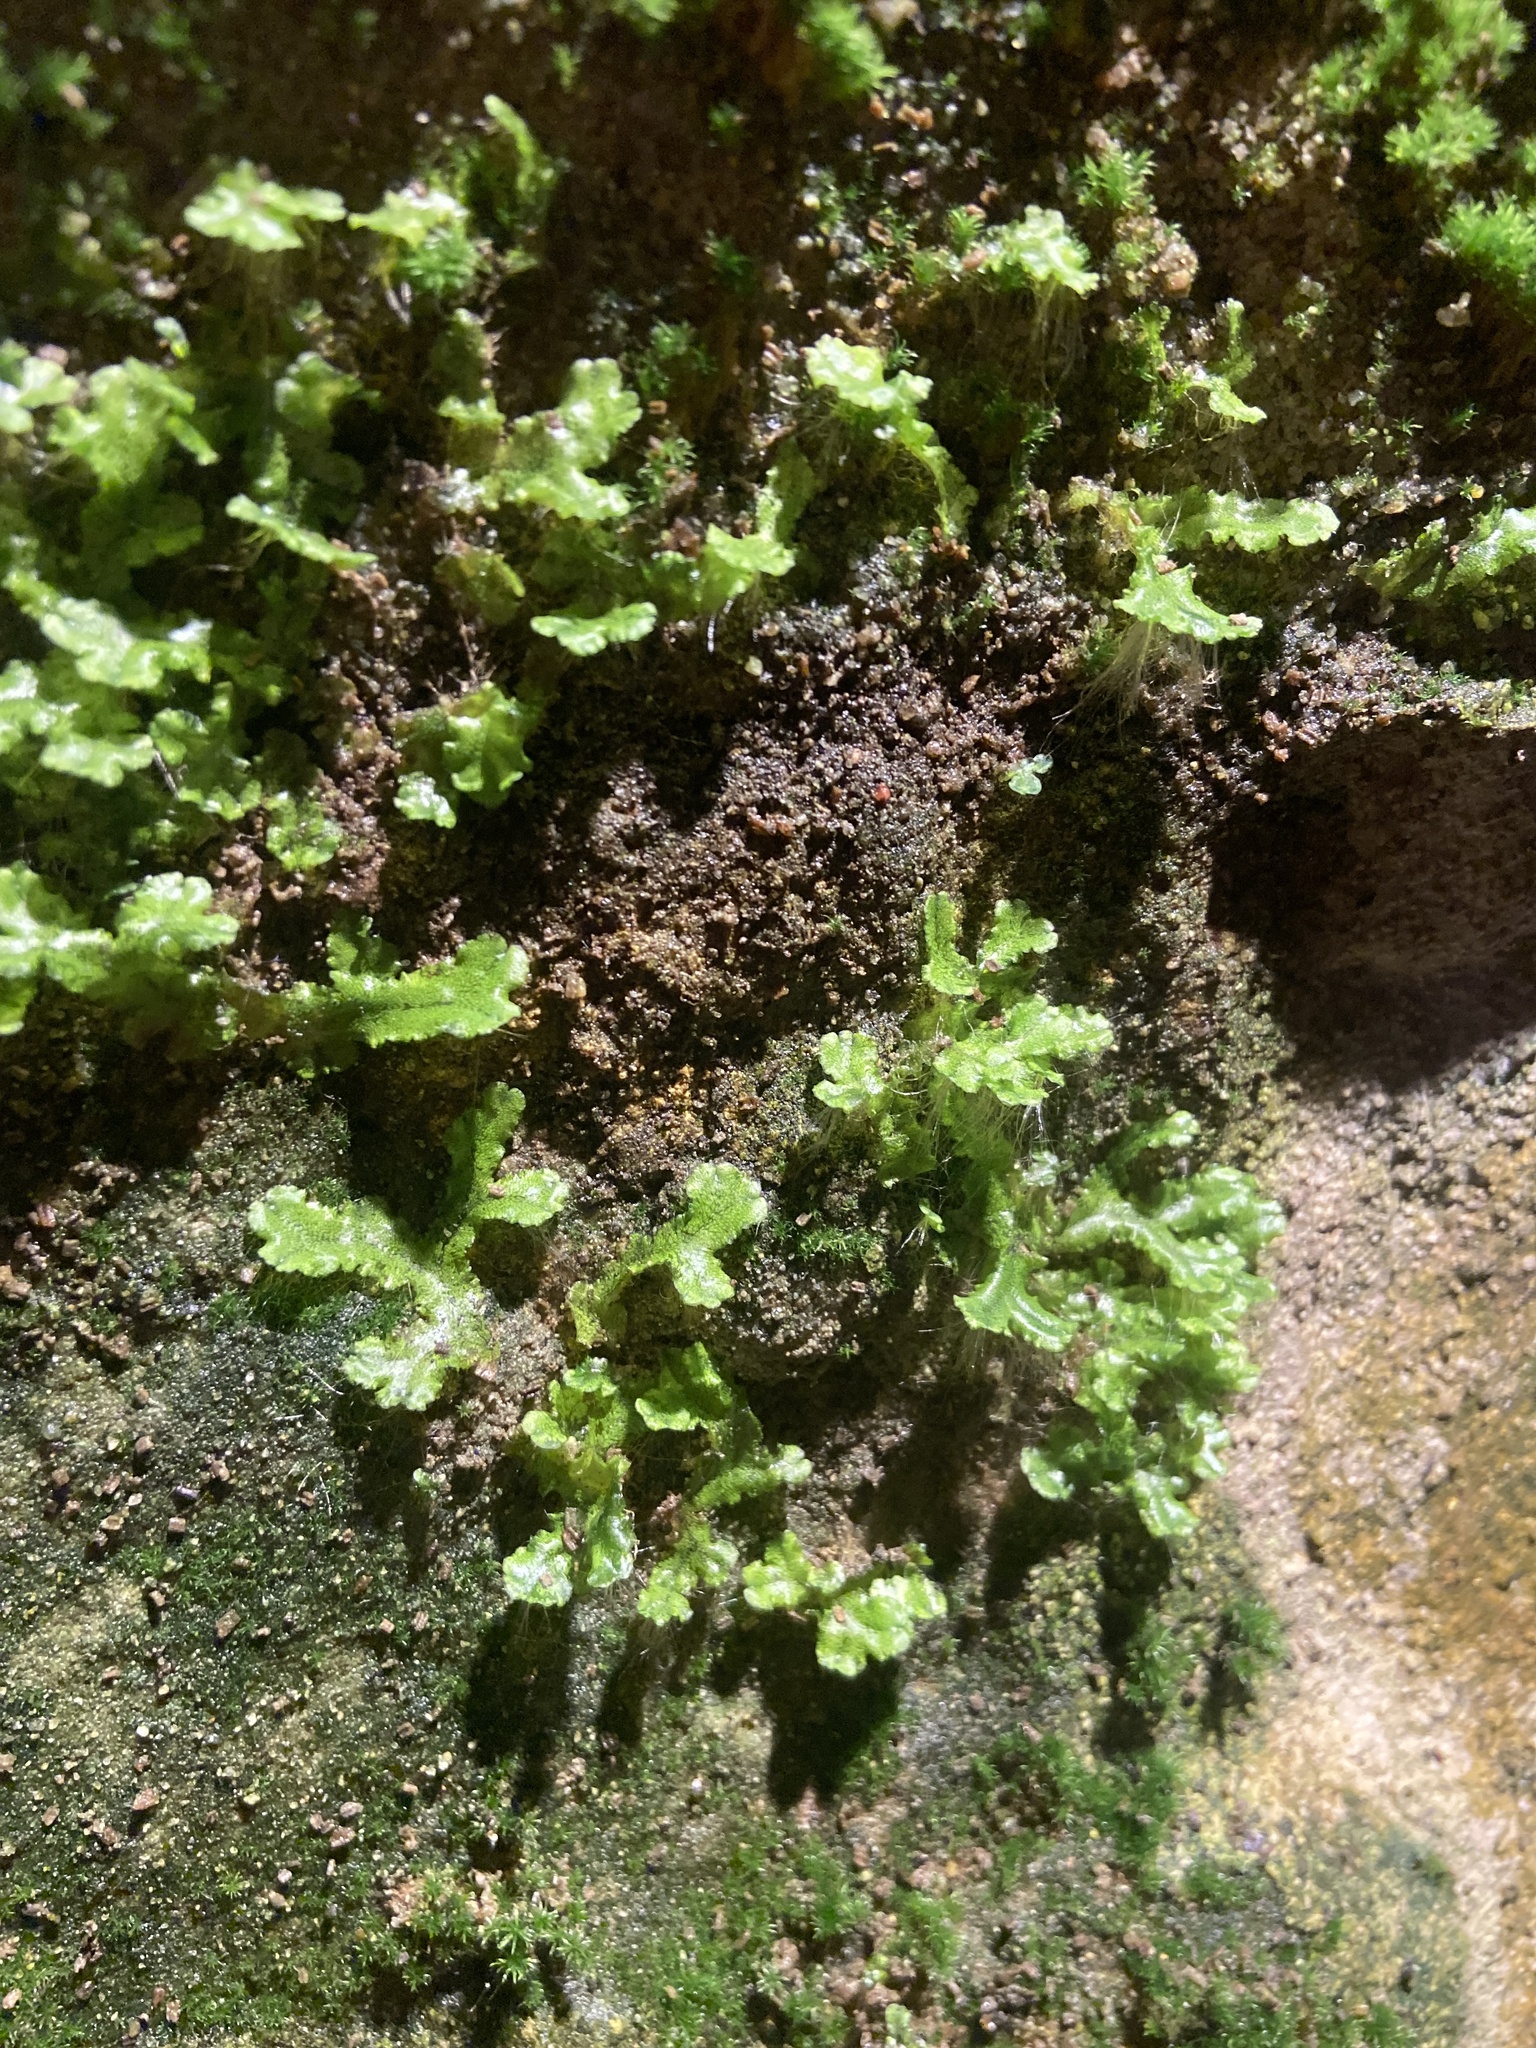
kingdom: Plantae
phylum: Marchantiophyta
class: Marchantiopsida
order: Marchantiales
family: Marchantiaceae
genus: Marchantia
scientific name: Marchantia polymorpha
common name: Common liverwort
